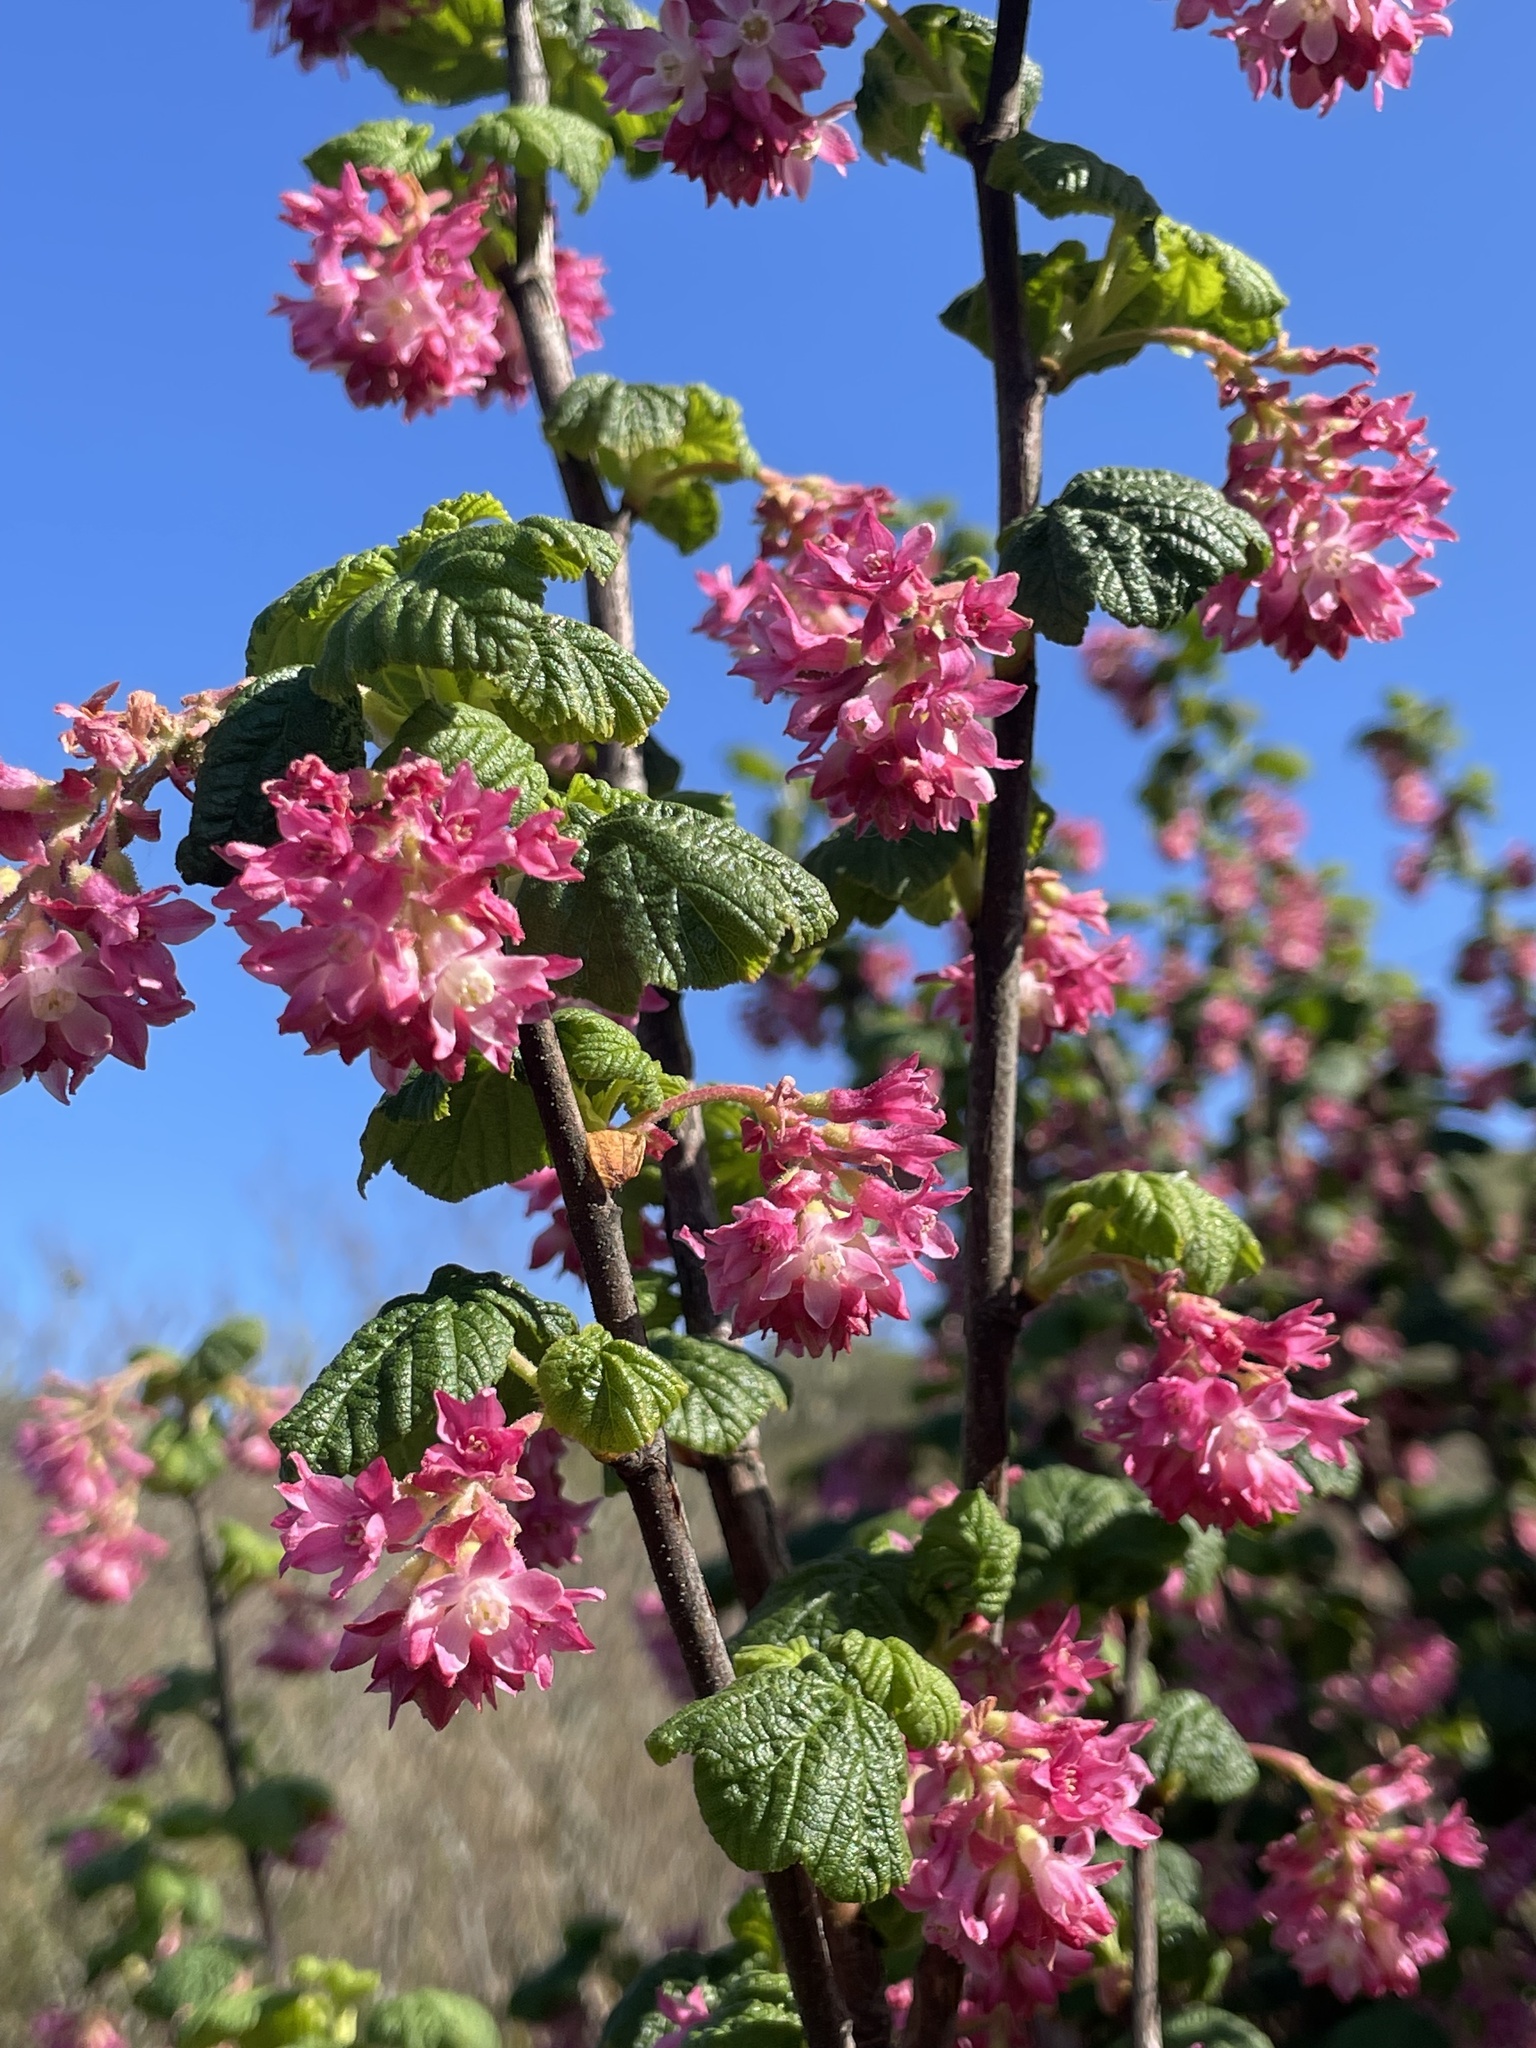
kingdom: Plantae
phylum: Tracheophyta
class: Magnoliopsida
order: Saxifragales
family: Grossulariaceae
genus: Ribes
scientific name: Ribes sanguineum
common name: Flowering currant
